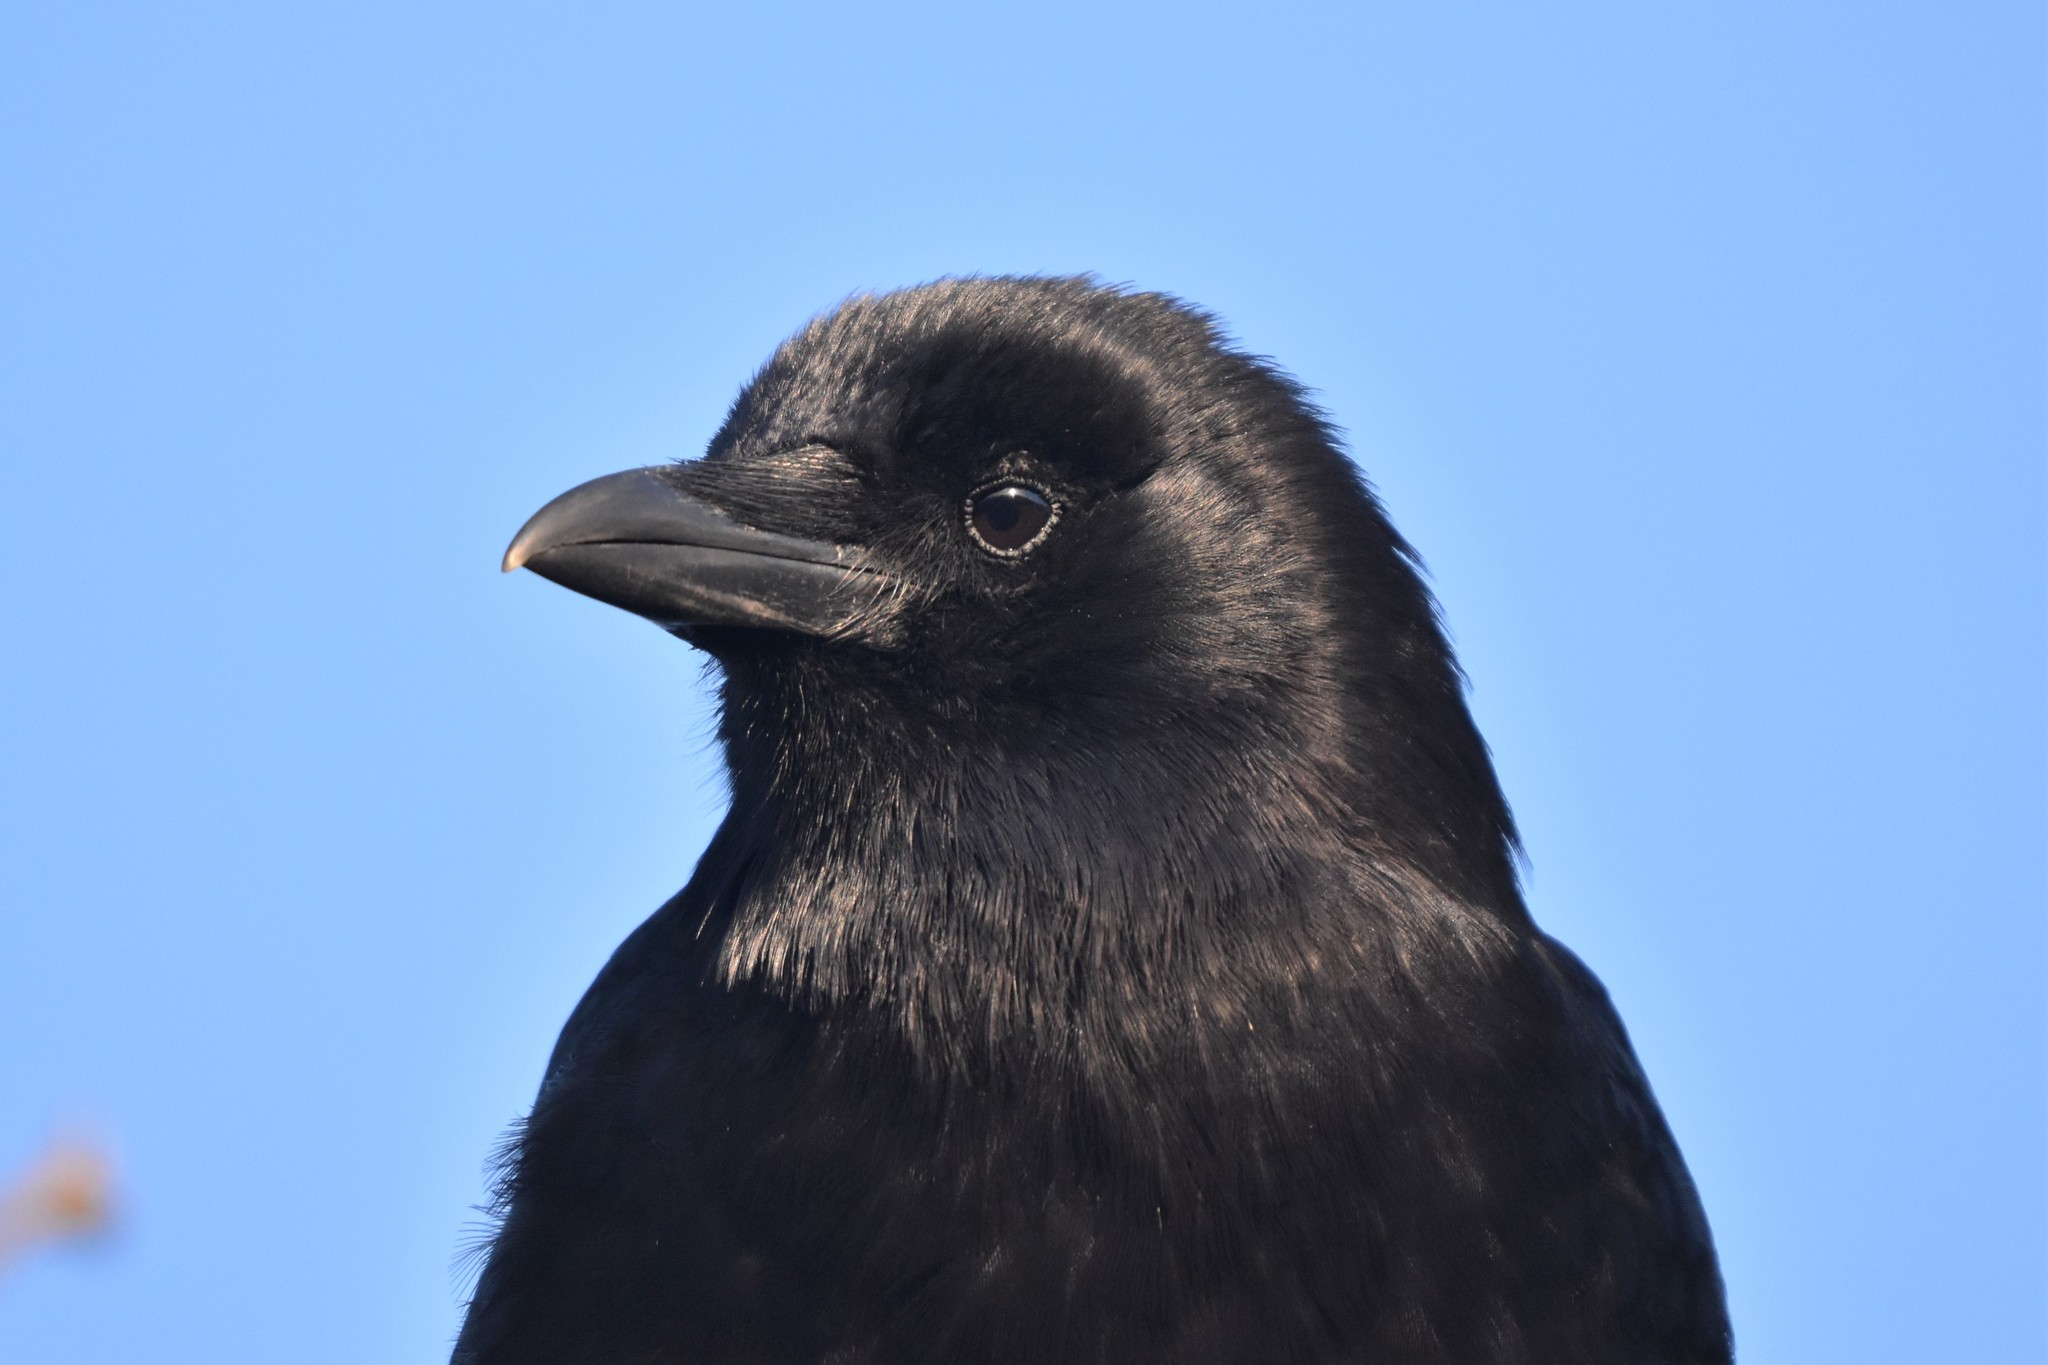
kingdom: Animalia
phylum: Chordata
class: Aves
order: Passeriformes
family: Corvidae
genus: Corvus
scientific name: Corvus brachyrhynchos
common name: American crow
